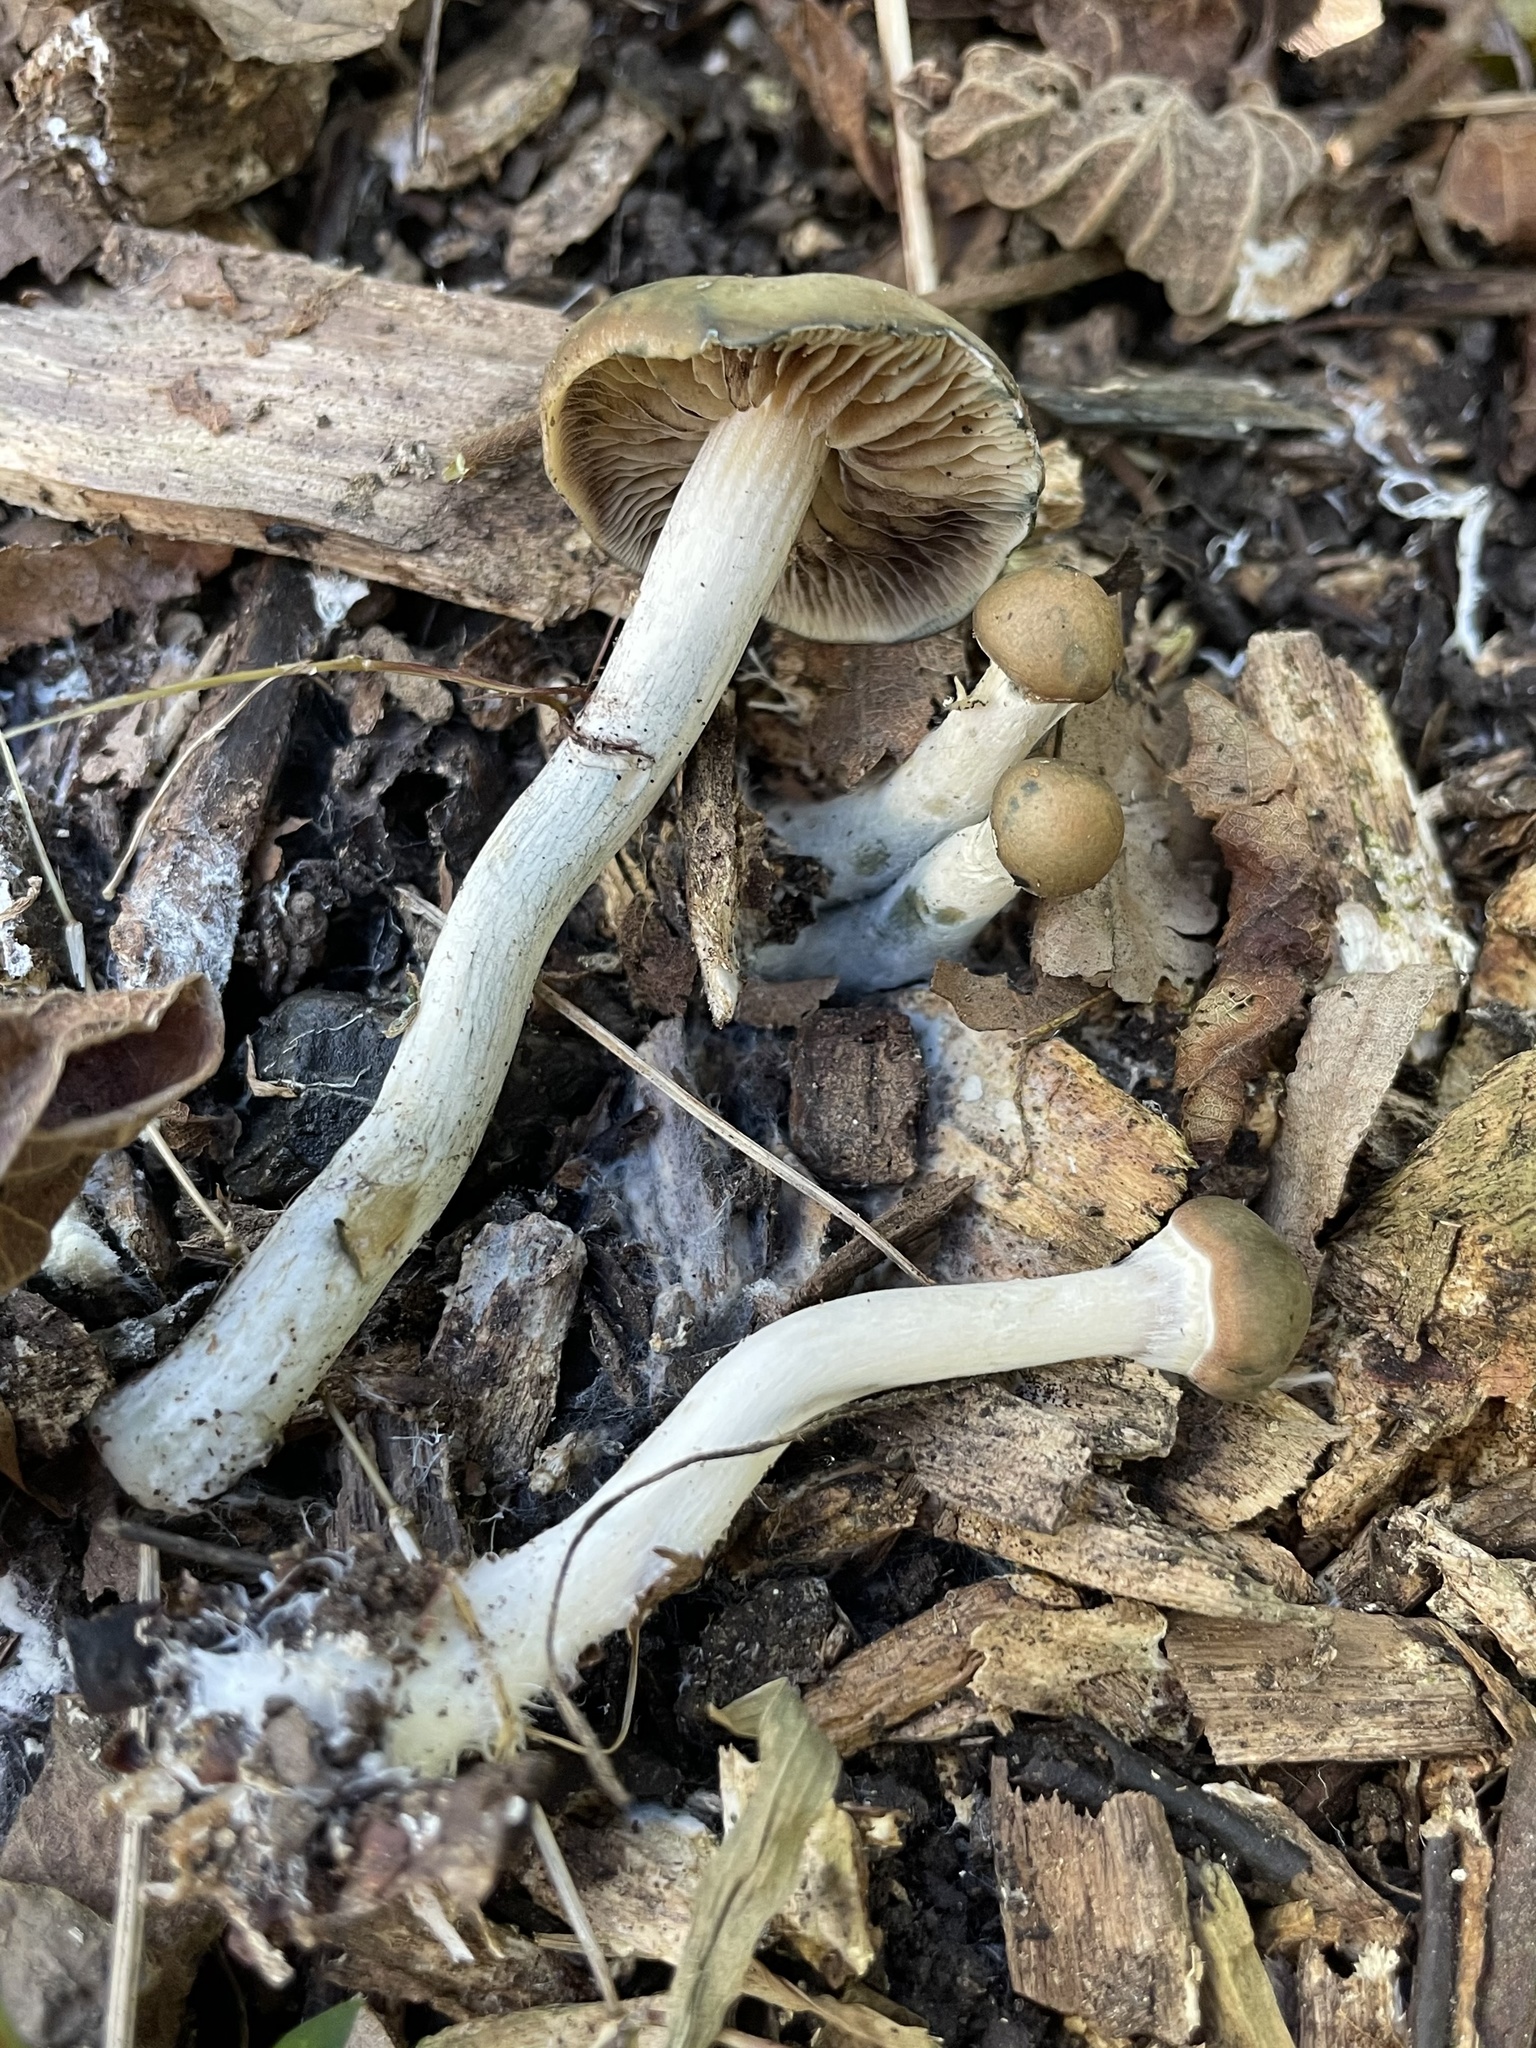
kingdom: Fungi
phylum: Basidiomycota
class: Agaricomycetes
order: Agaricales
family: Hymenogastraceae
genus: Psilocybe
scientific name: Psilocybe ovoideocystidiata
